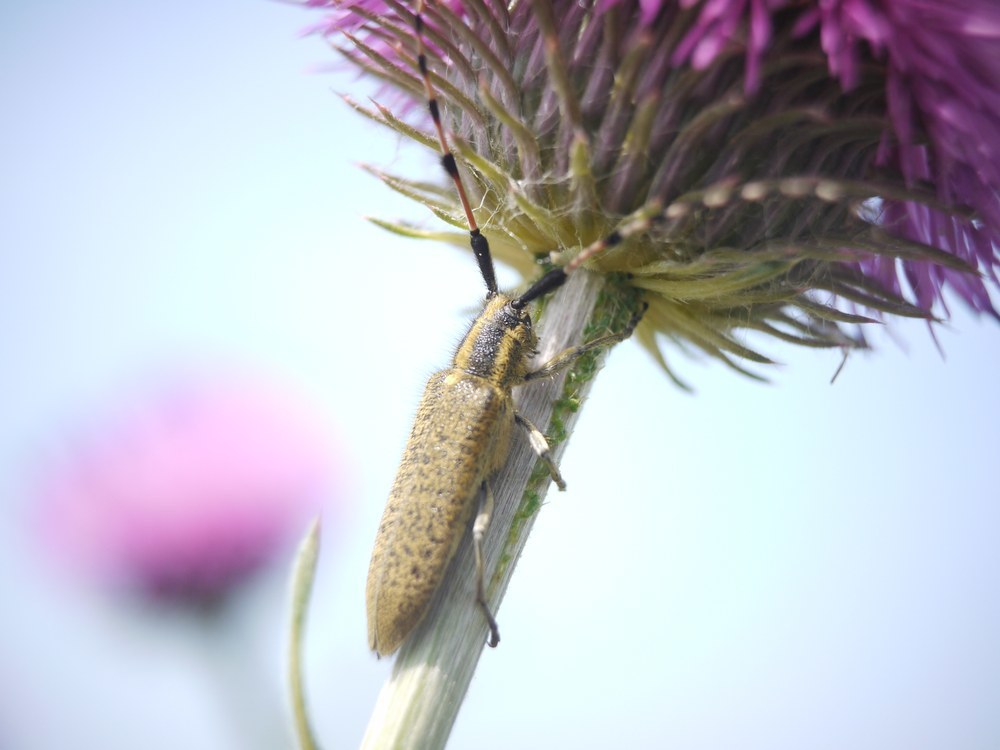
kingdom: Animalia
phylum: Arthropoda
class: Insecta
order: Coleoptera
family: Cerambycidae
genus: Agapanthia
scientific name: Agapanthia dahlii
